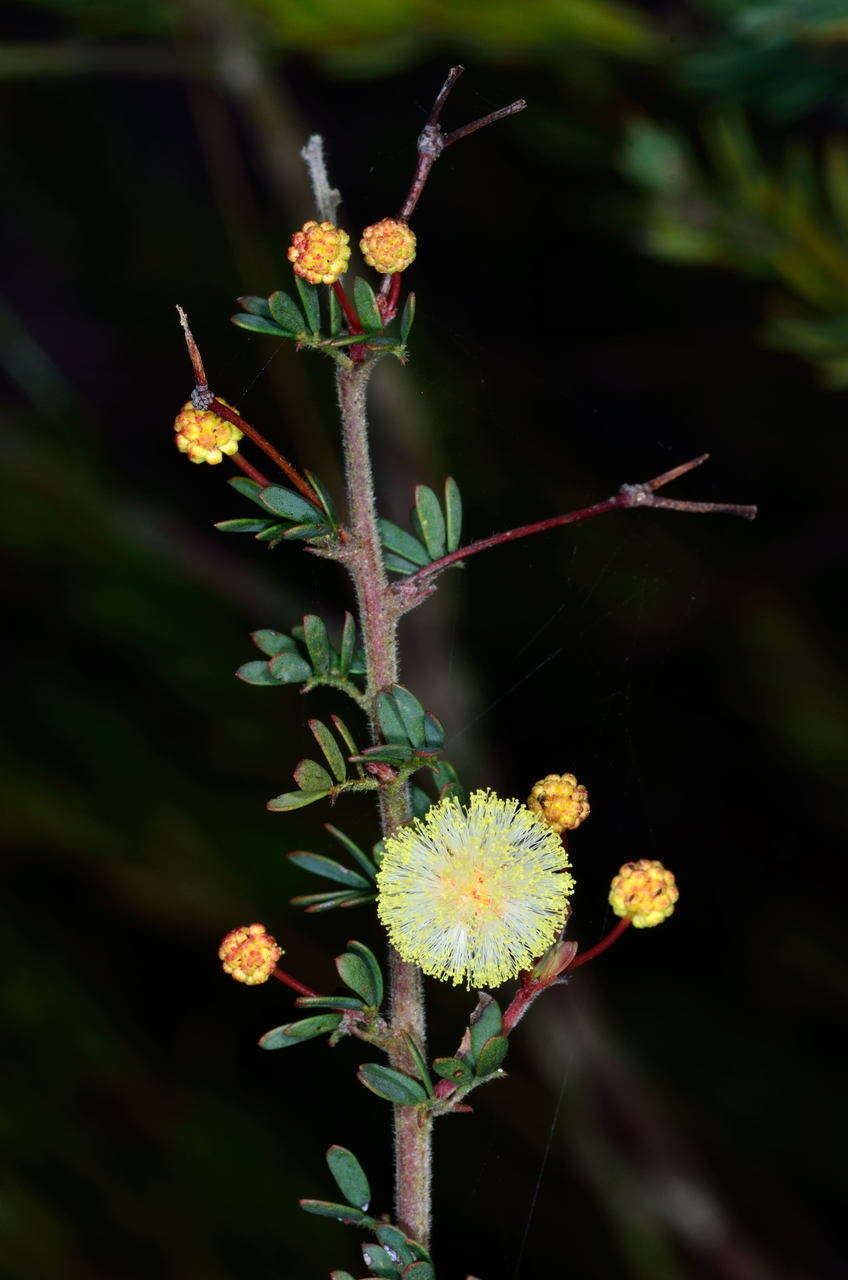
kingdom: Plantae
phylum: Tracheophyta
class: Magnoliopsida
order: Fabales
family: Fabaceae
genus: Acacia
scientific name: Acacia mitchellii
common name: Mitchell's wattle
